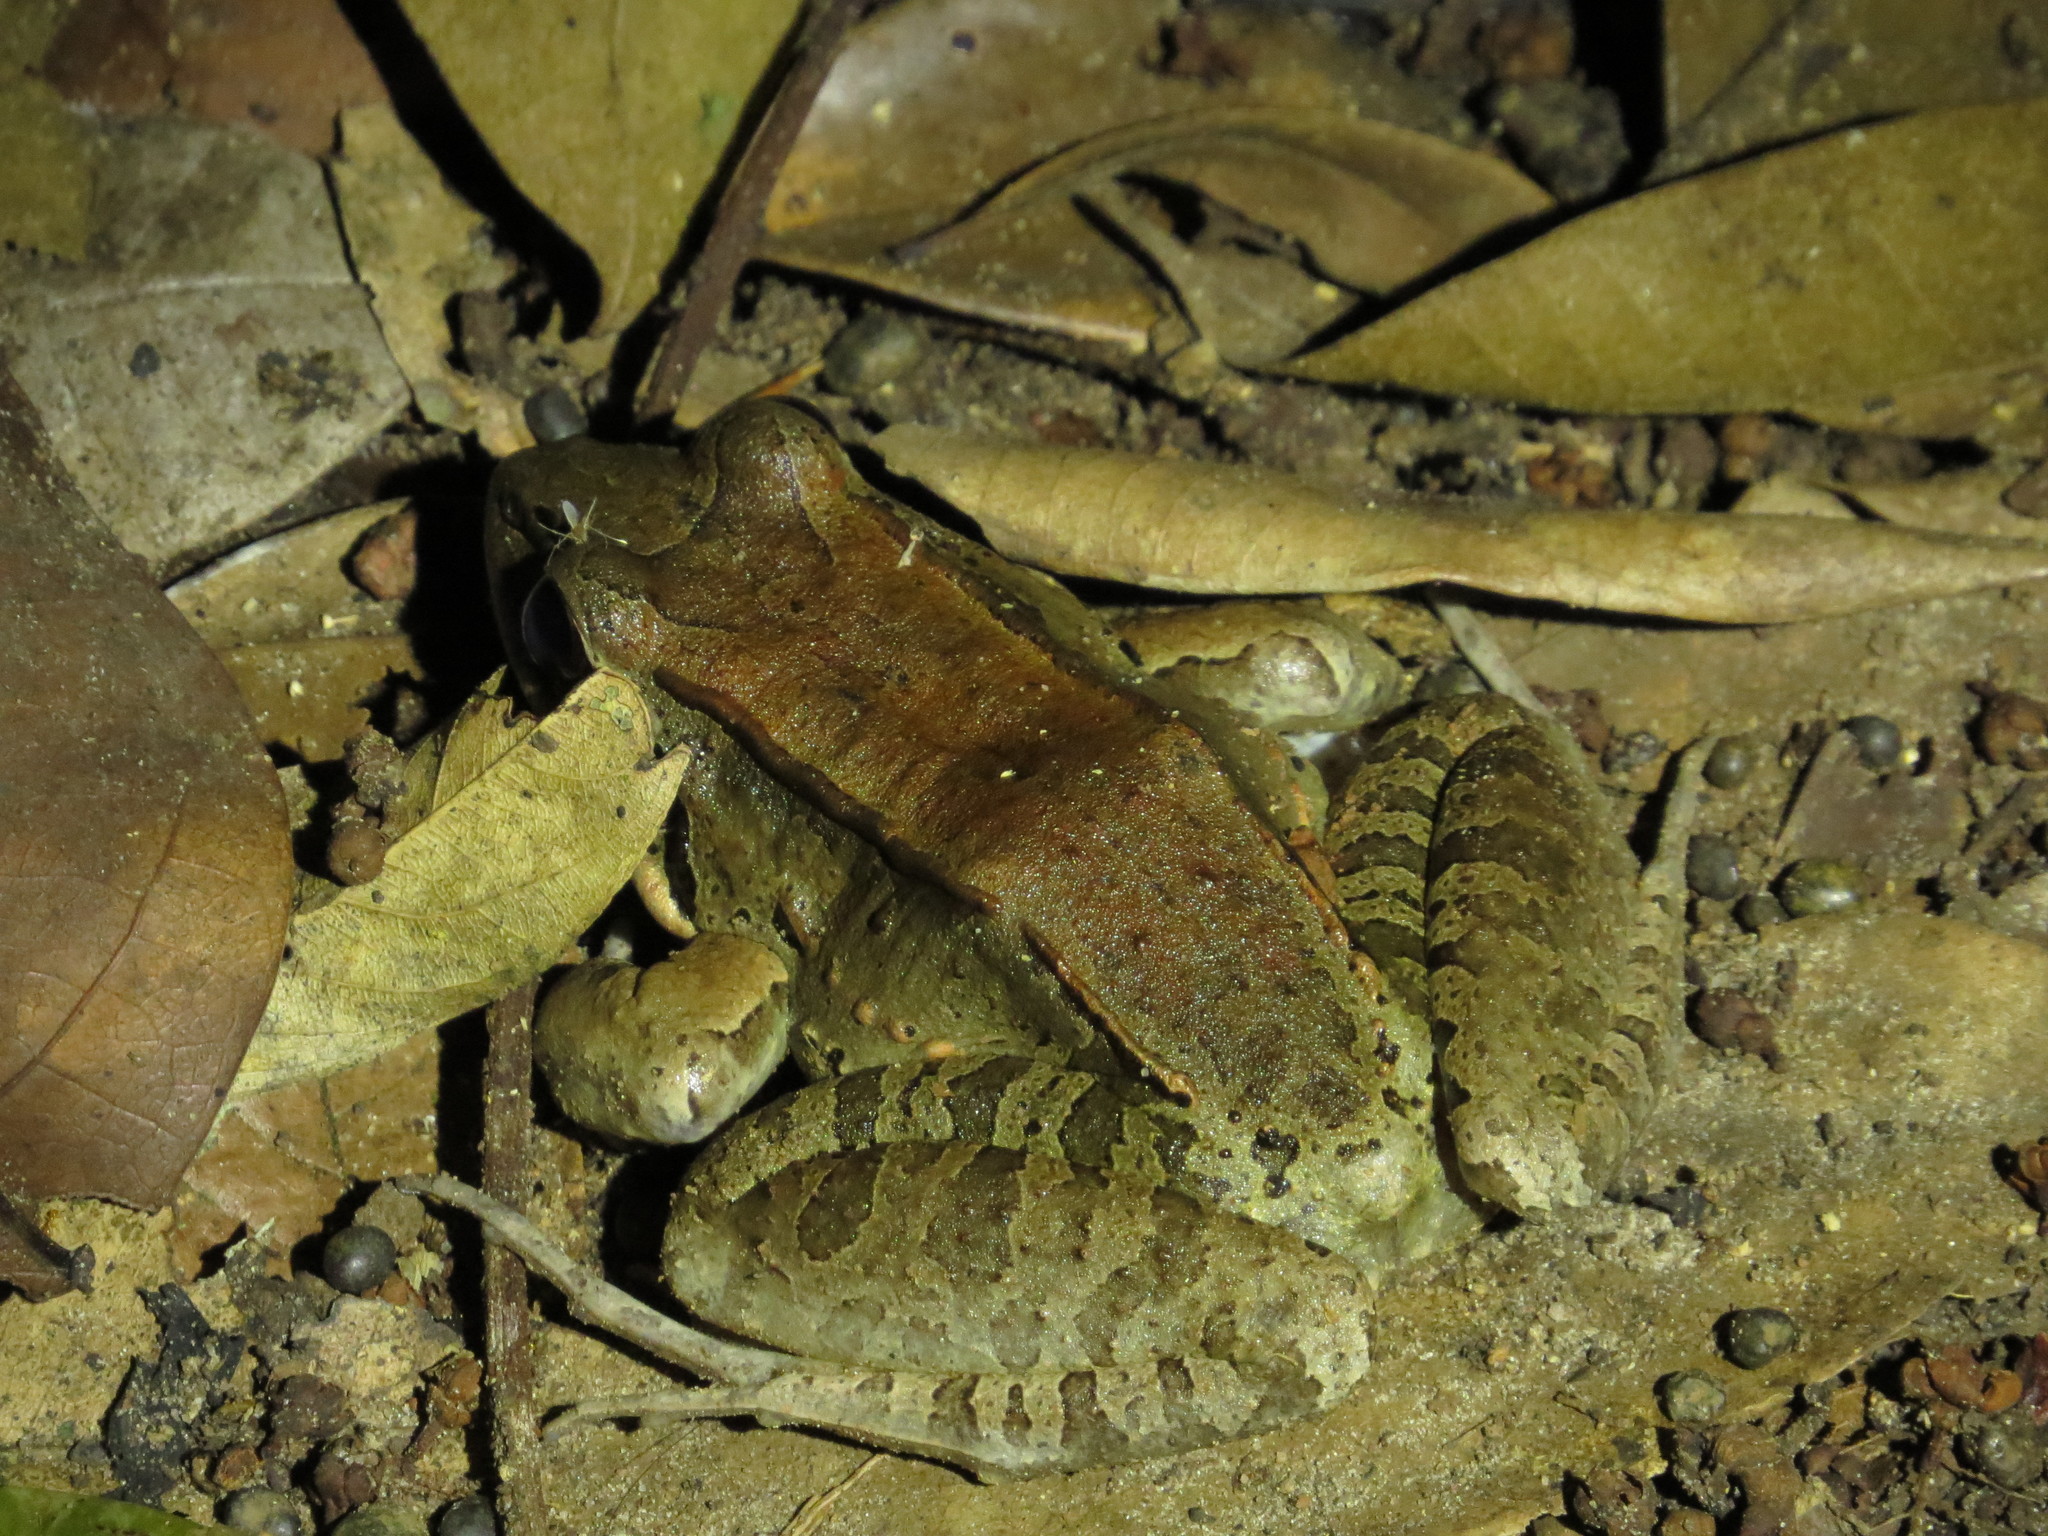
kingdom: Animalia
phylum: Chordata
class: Amphibia
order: Anura
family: Leptodactylidae
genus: Leptodactylus
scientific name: Leptodactylus guianensis
